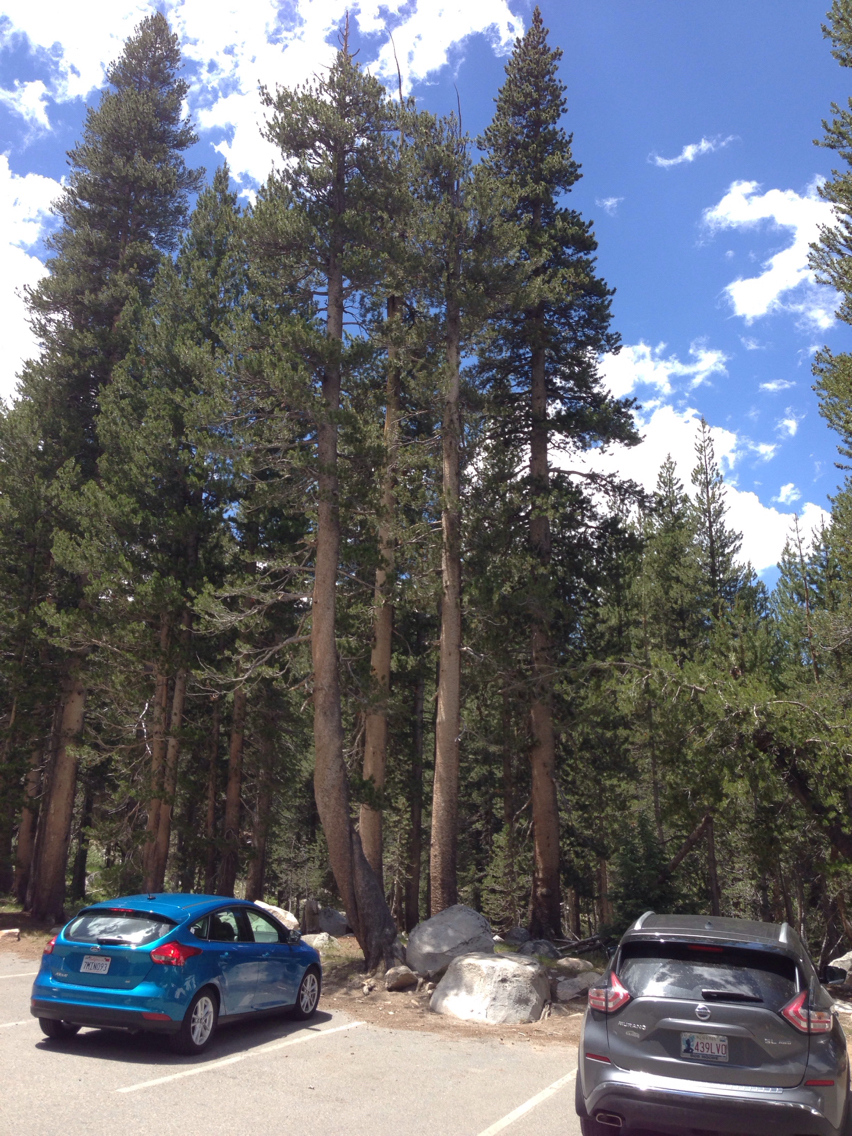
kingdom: Plantae
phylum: Tracheophyta
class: Pinopsida
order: Pinales
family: Pinaceae
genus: Pinus
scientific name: Pinus contorta
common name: Lodgepole pine
